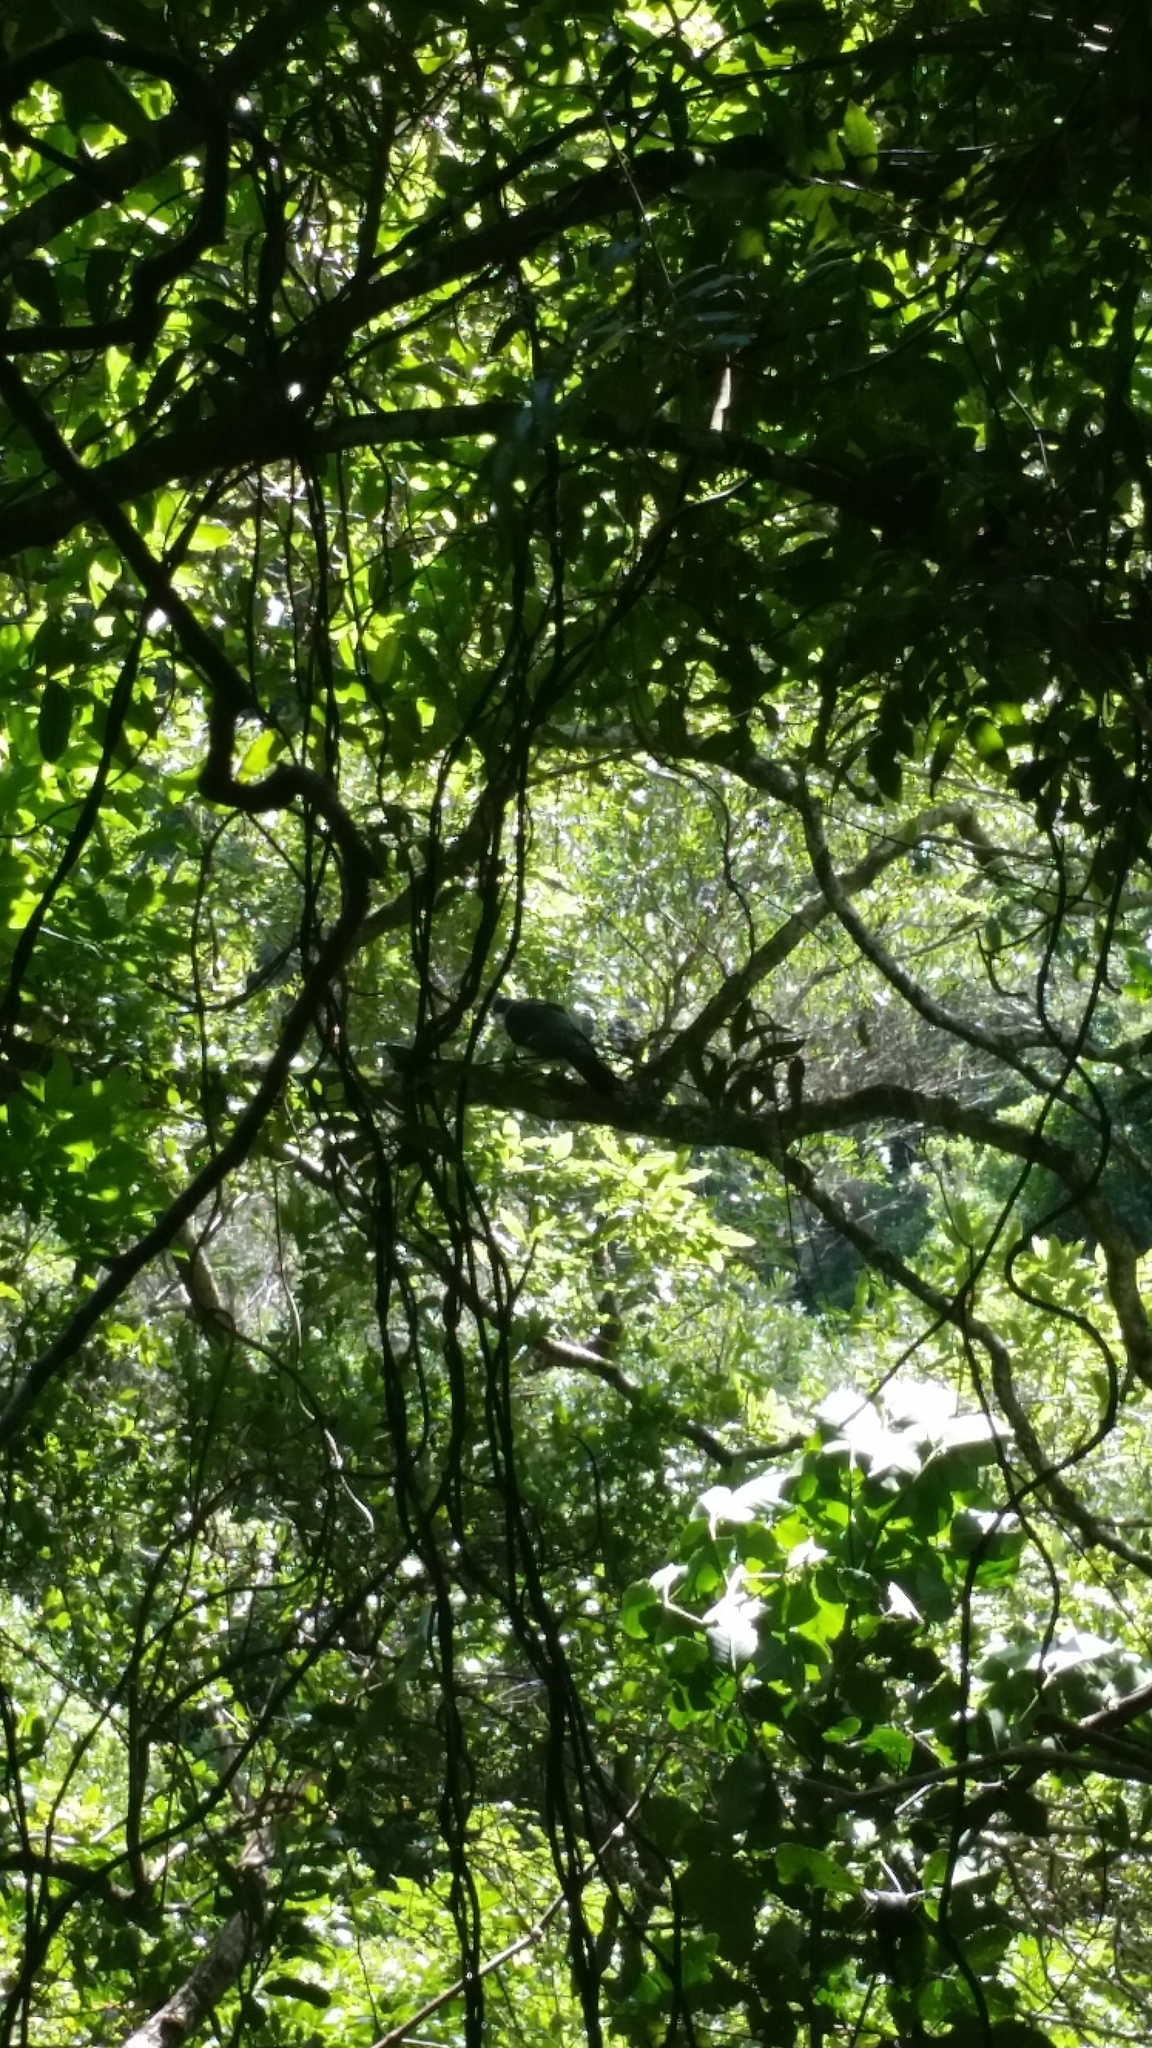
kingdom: Animalia
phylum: Chordata
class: Aves
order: Columbiformes
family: Columbidae
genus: Hemiphaga
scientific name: Hemiphaga novaeseelandiae
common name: New zealand pigeon
